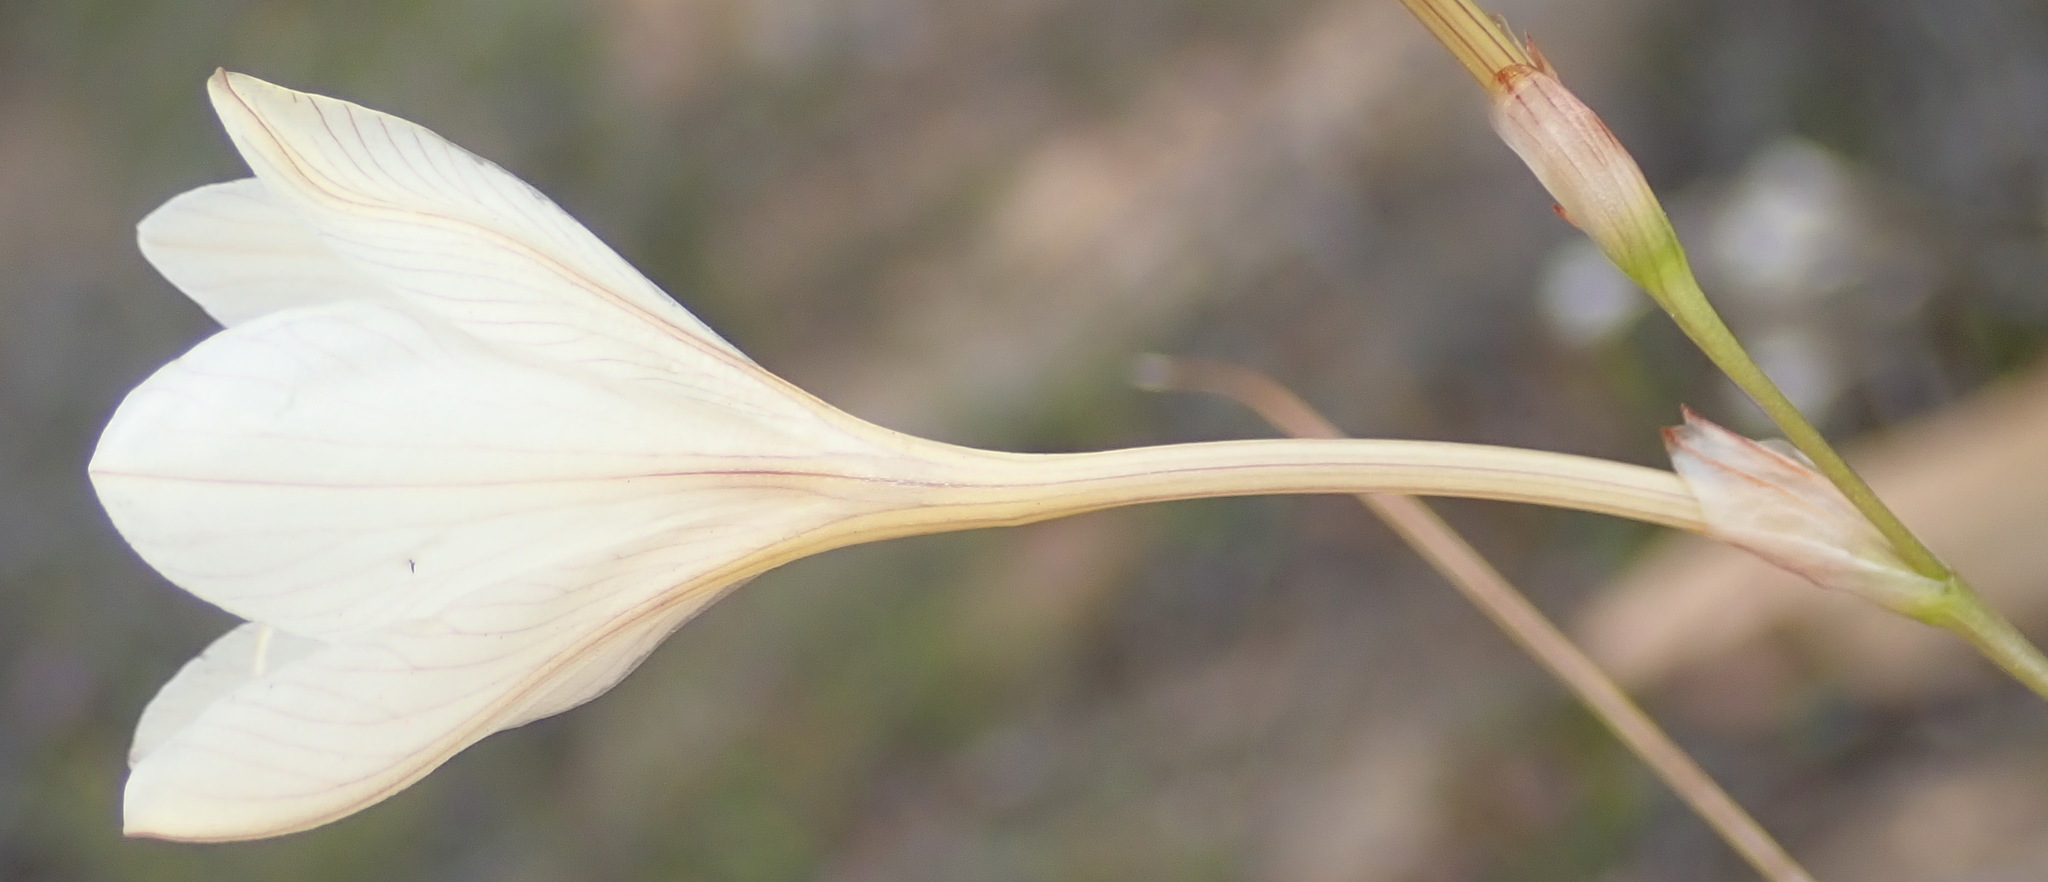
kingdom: Plantae
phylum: Tracheophyta
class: Liliopsida
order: Asparagales
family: Iridaceae
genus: Tritonia
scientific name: Tritonia bakeri
